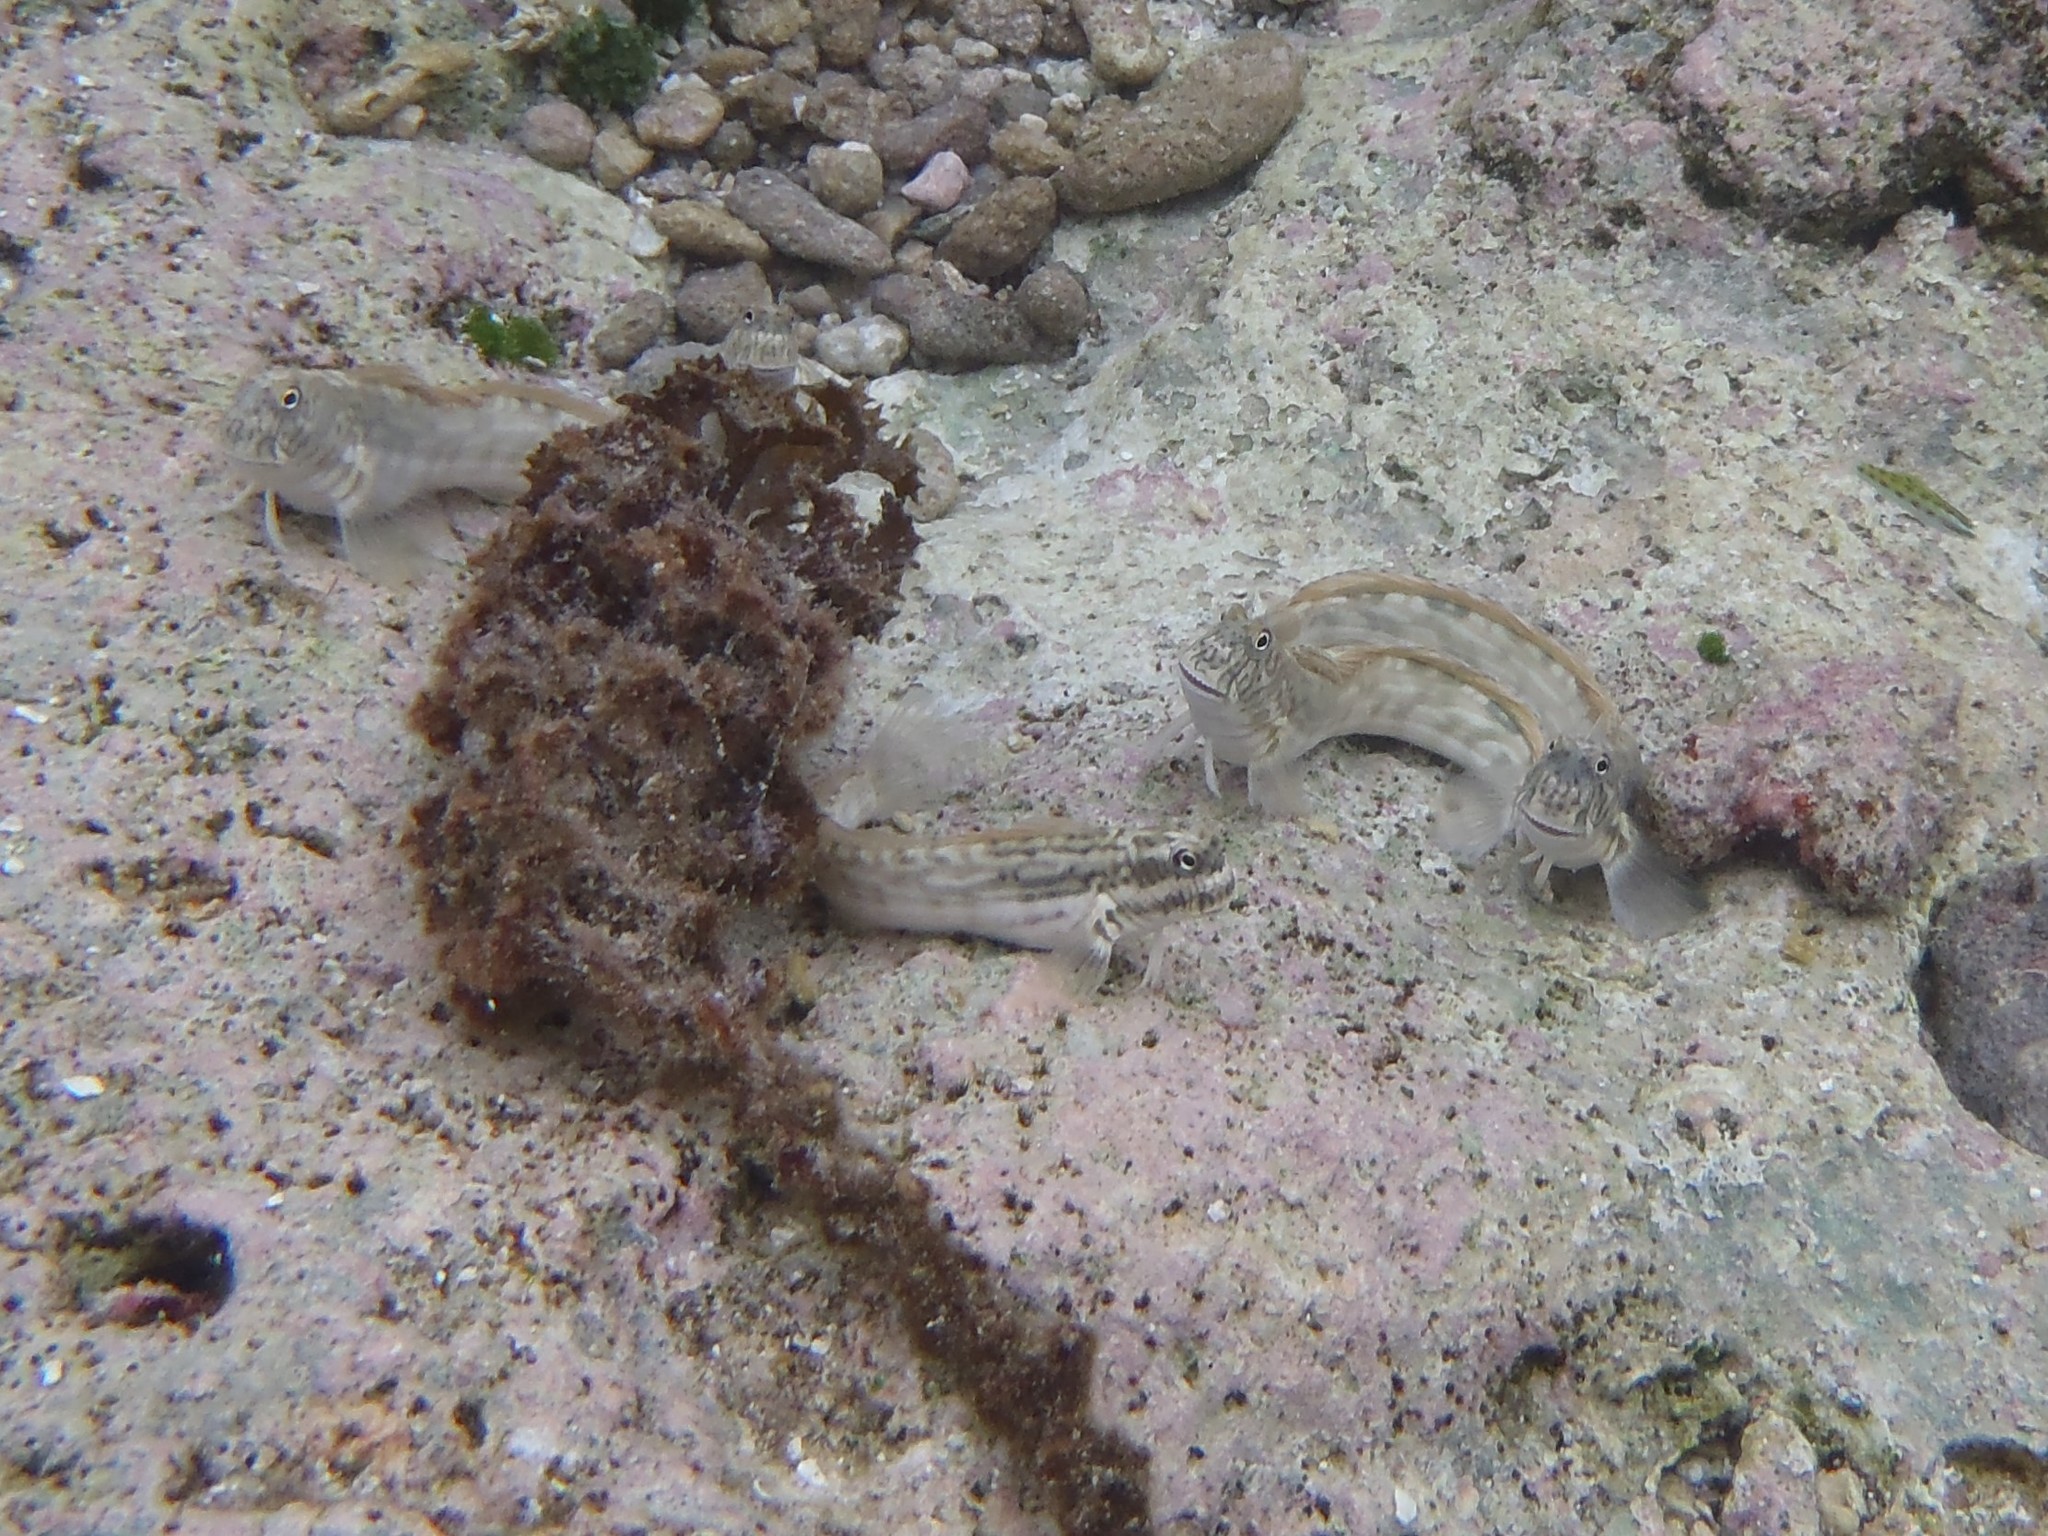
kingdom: Animalia
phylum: Chordata
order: Perciformes
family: Blenniidae
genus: Istiblennius
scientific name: Istiblennius lineatus
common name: Black-lined blenny
